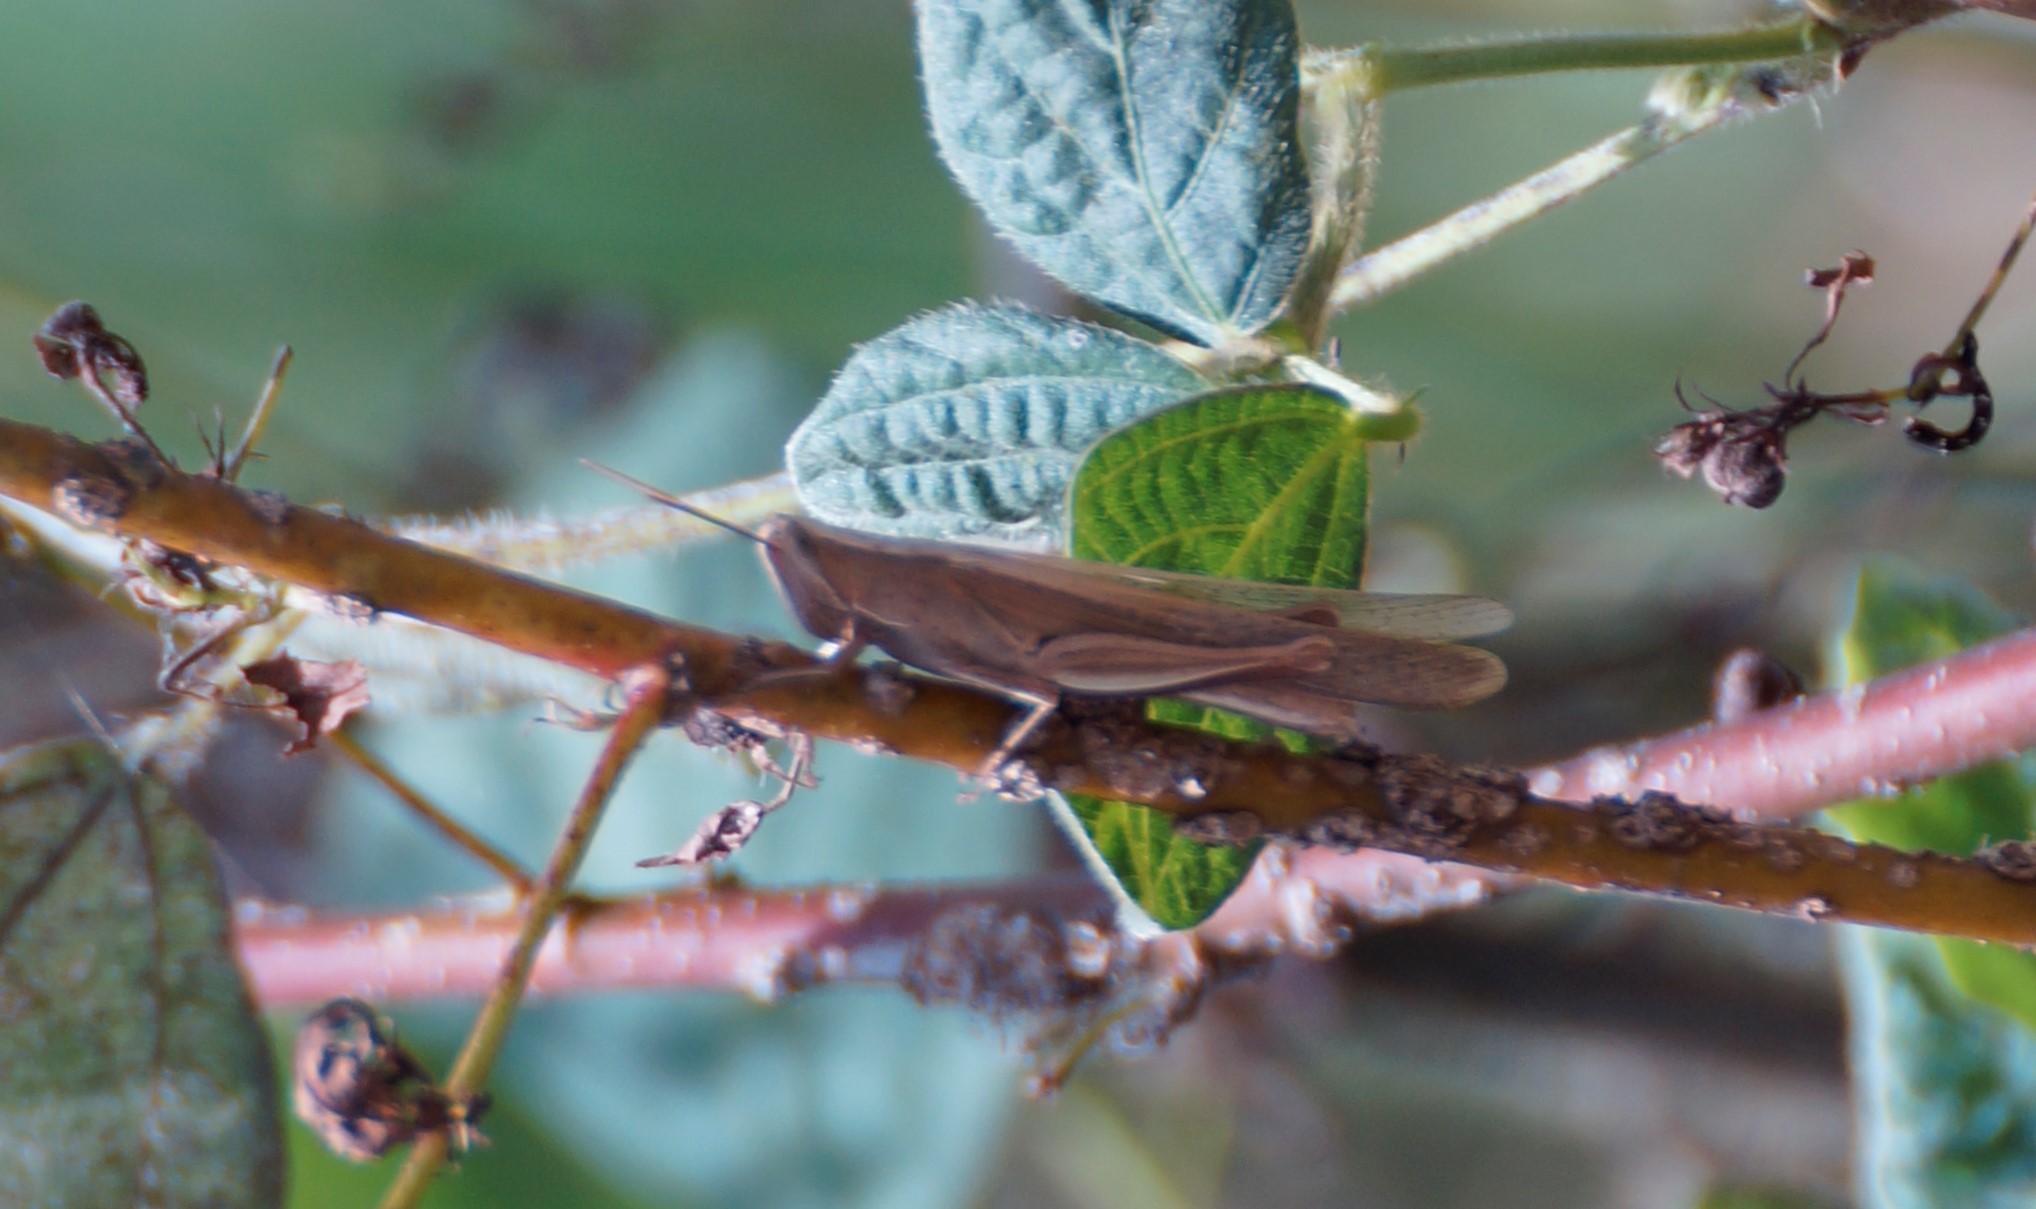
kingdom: Animalia
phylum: Arthropoda
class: Insecta
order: Orthoptera
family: Acrididae
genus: Stenocatantops
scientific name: Stenocatantops vitripennis
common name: Light-brown sharptail
